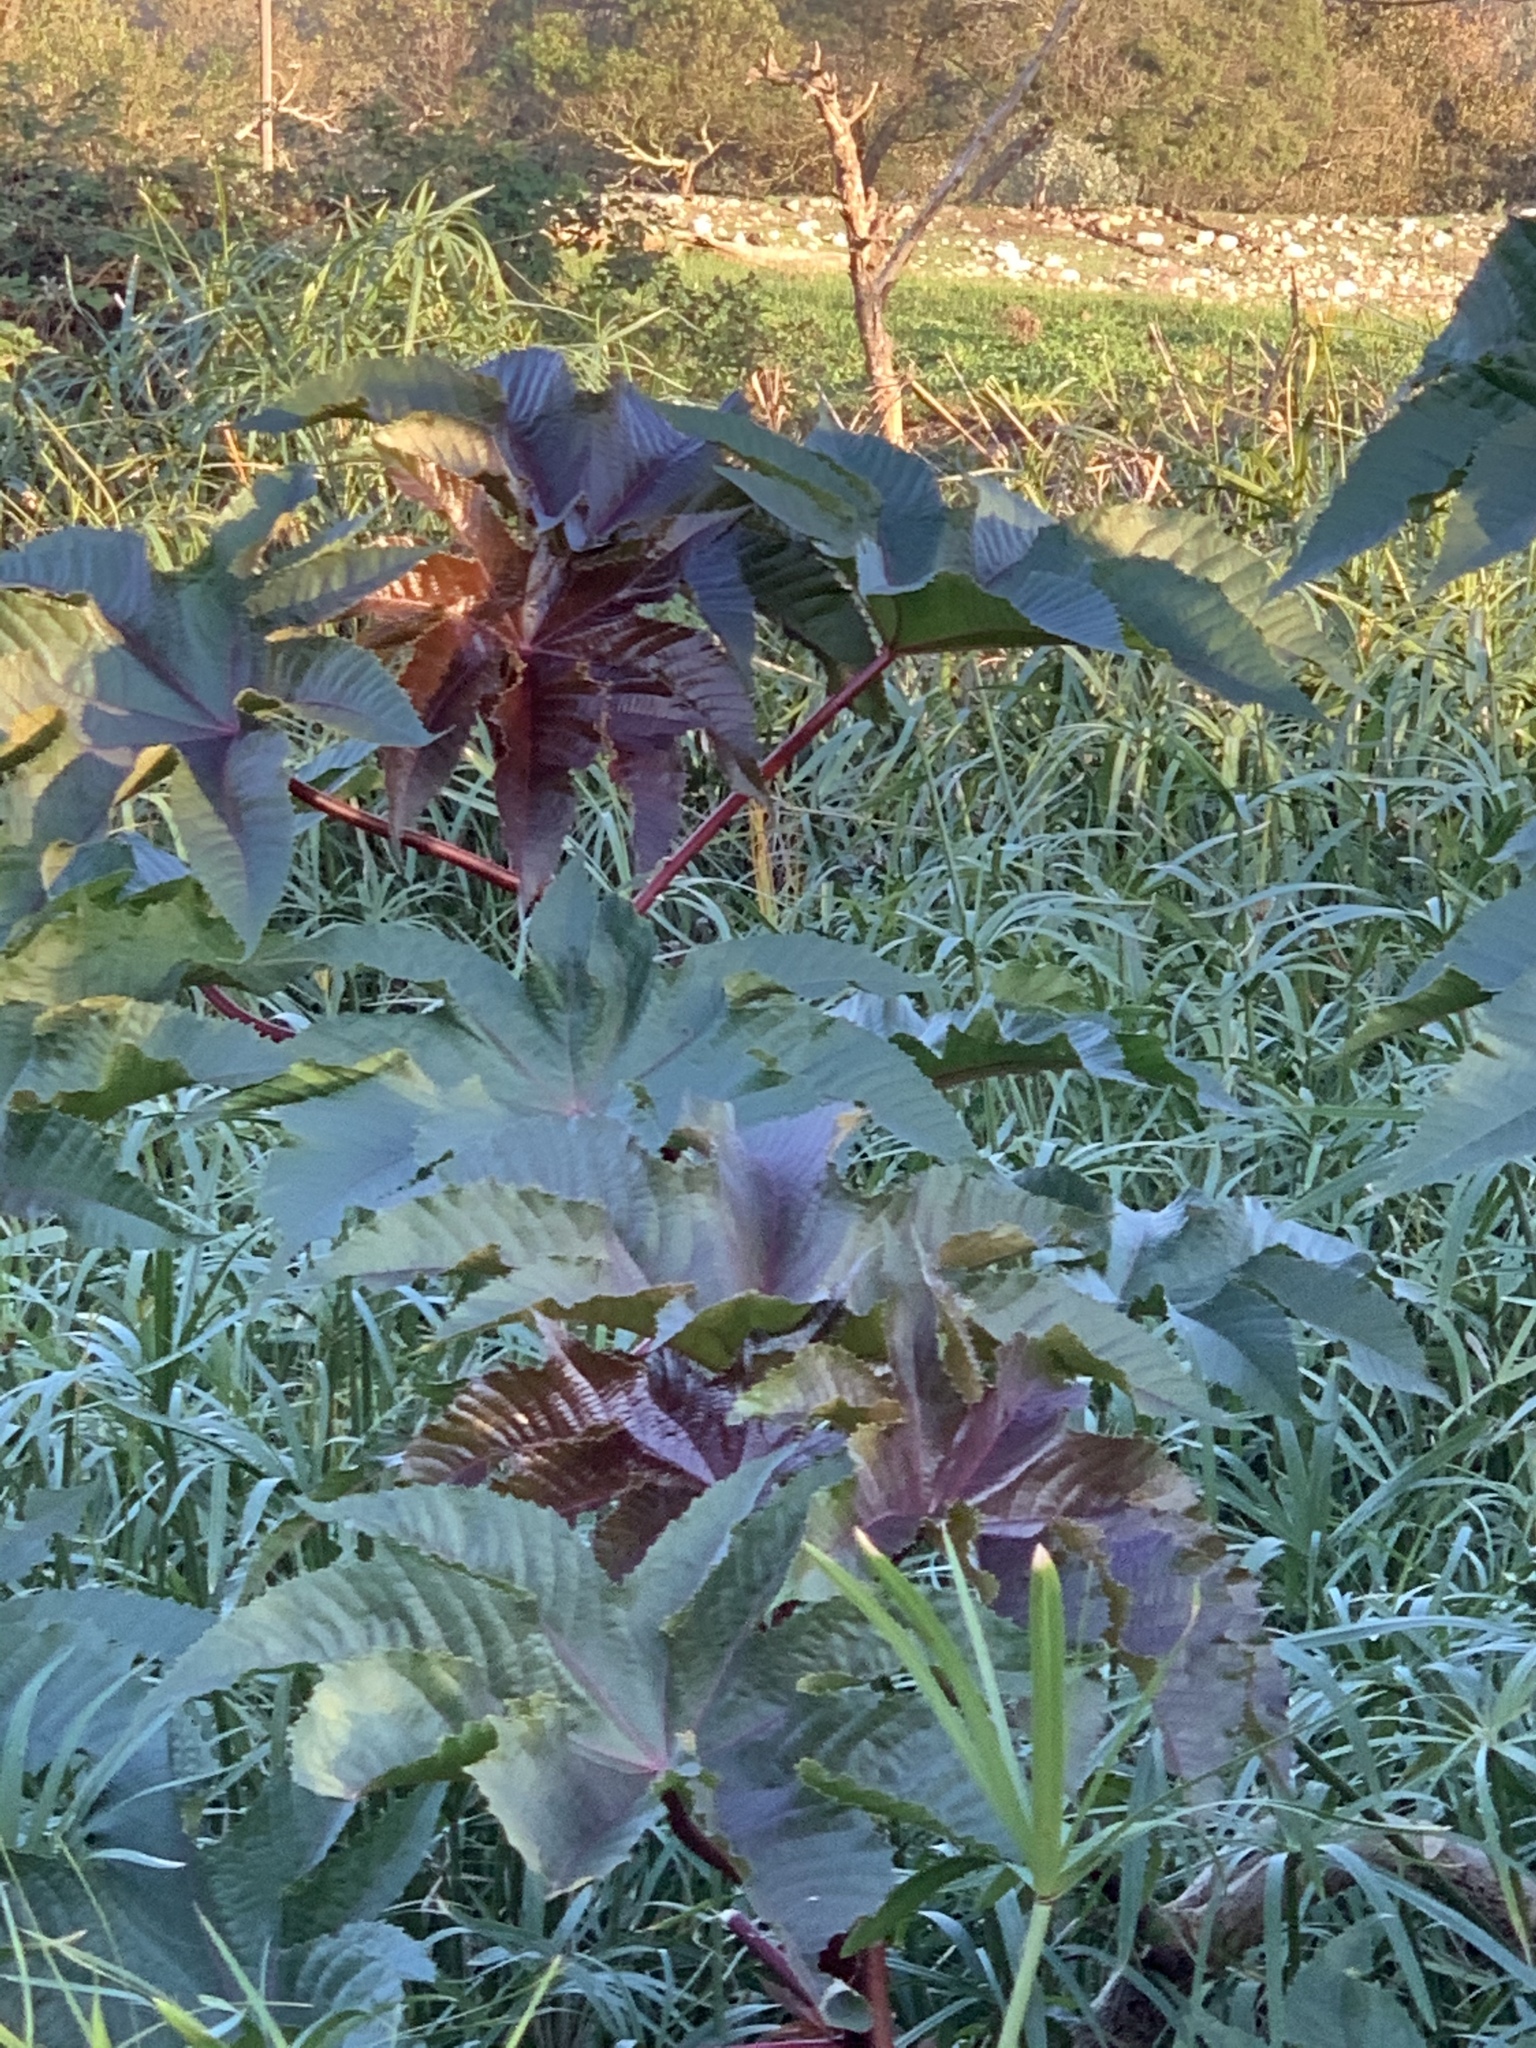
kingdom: Plantae
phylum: Tracheophyta
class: Magnoliopsida
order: Malpighiales
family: Euphorbiaceae
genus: Ricinus
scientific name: Ricinus communis
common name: Castor-oil-plant
